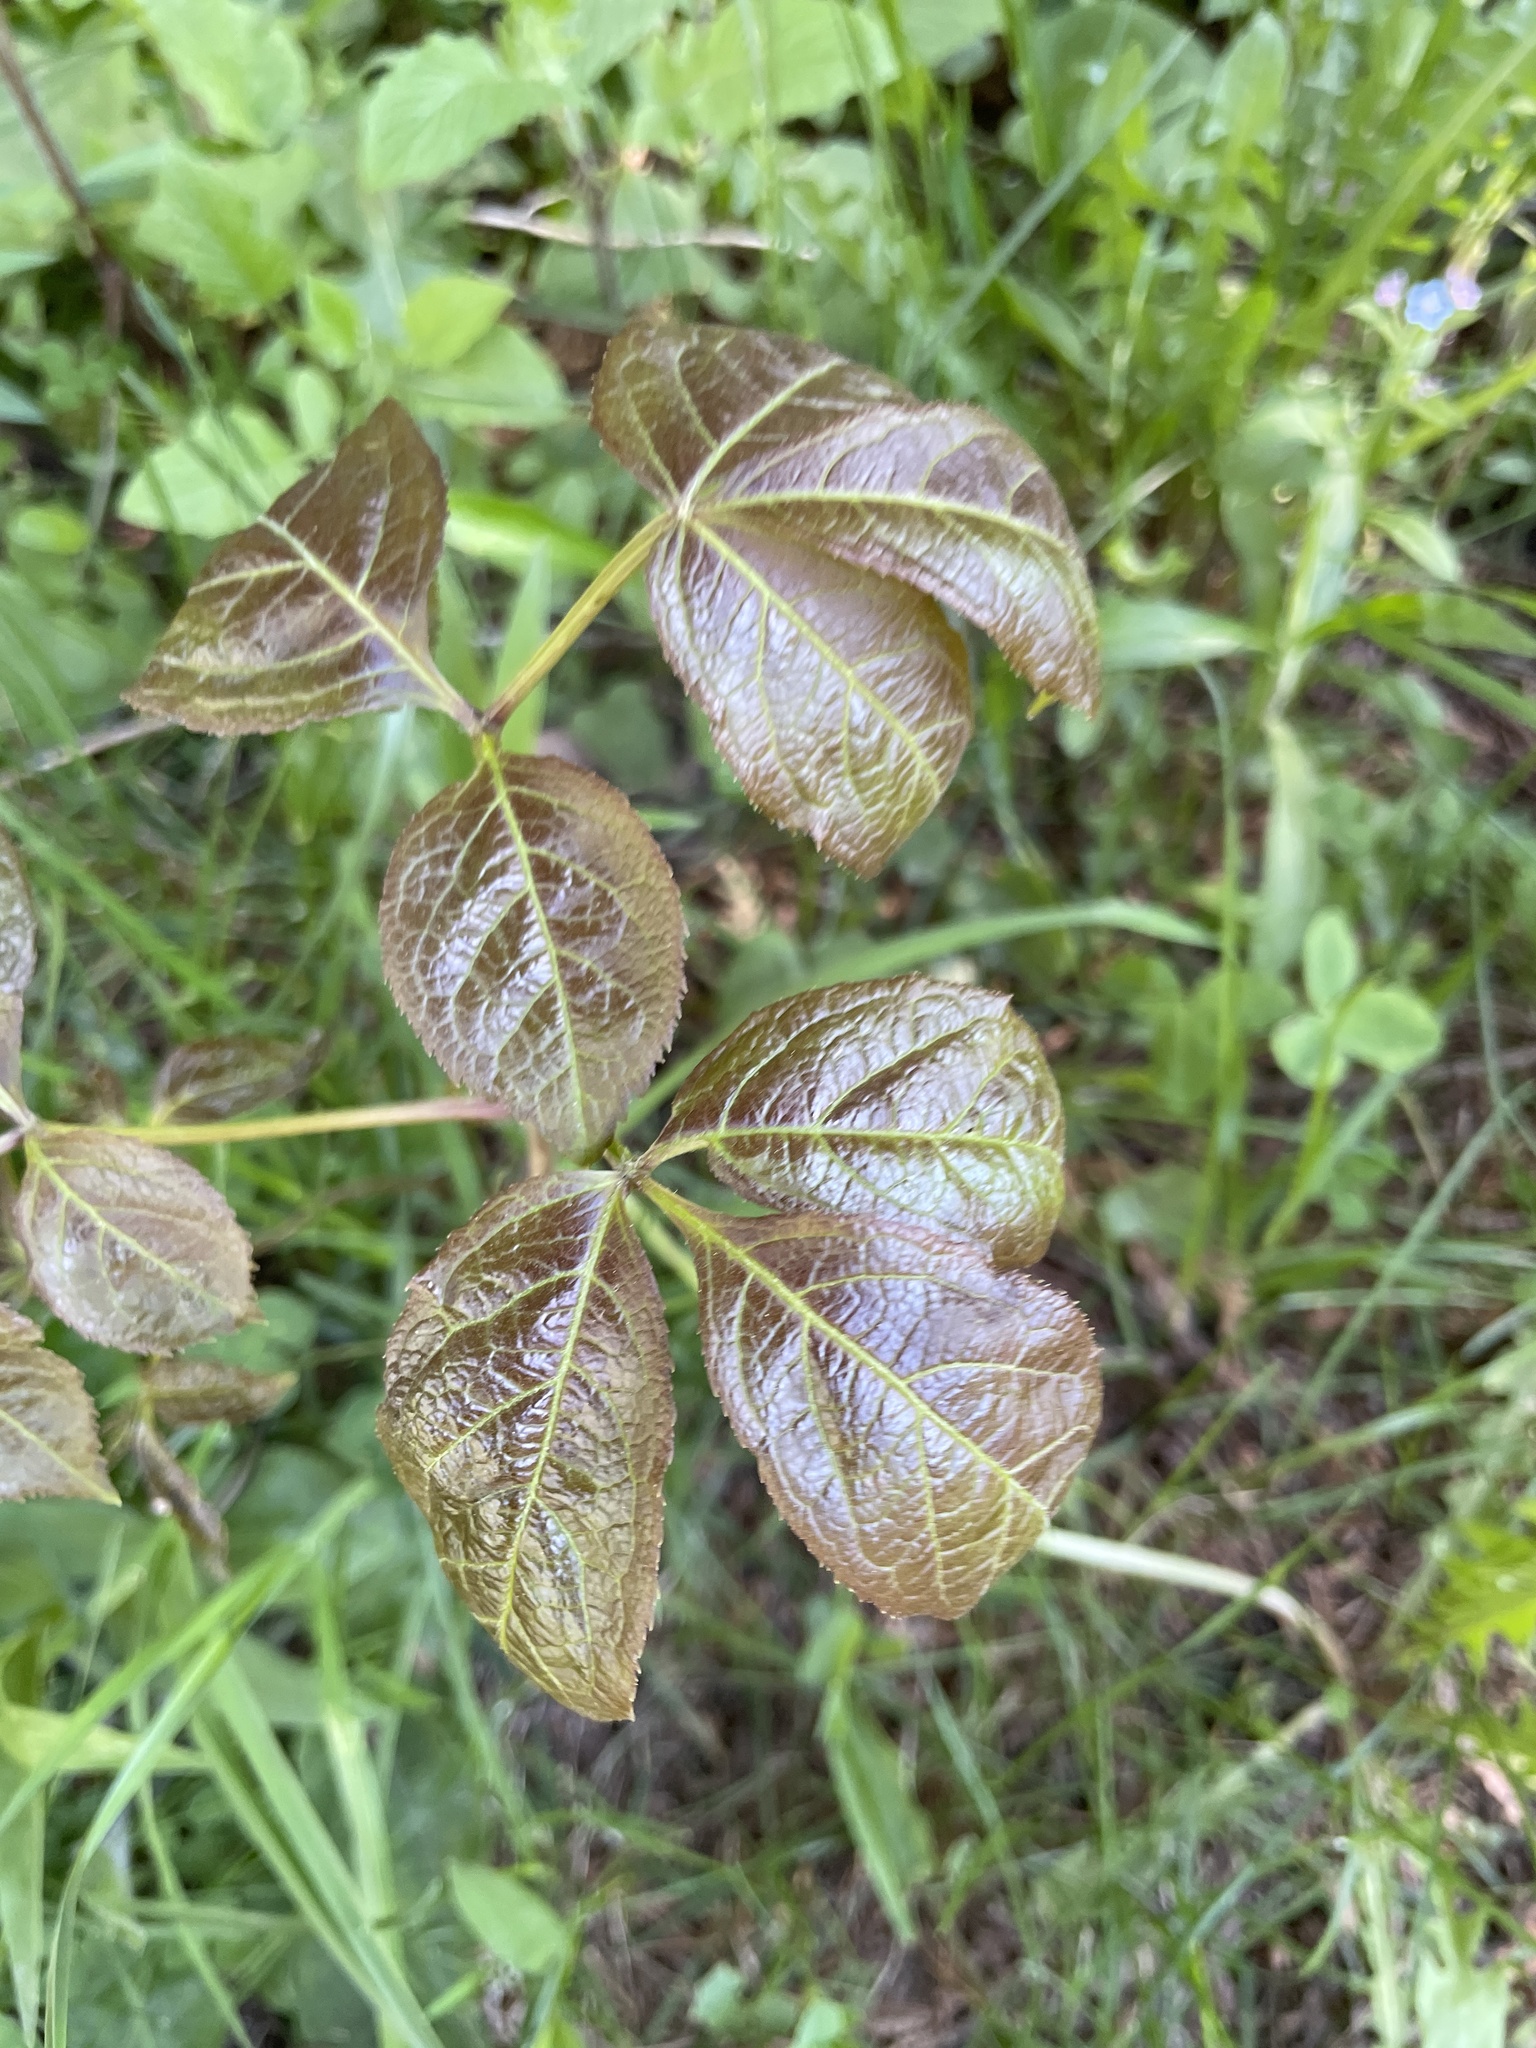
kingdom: Plantae
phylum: Tracheophyta
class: Magnoliopsida
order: Apiales
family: Araliaceae
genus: Aralia
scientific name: Aralia nudicaulis
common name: Wild sarsaparilla
